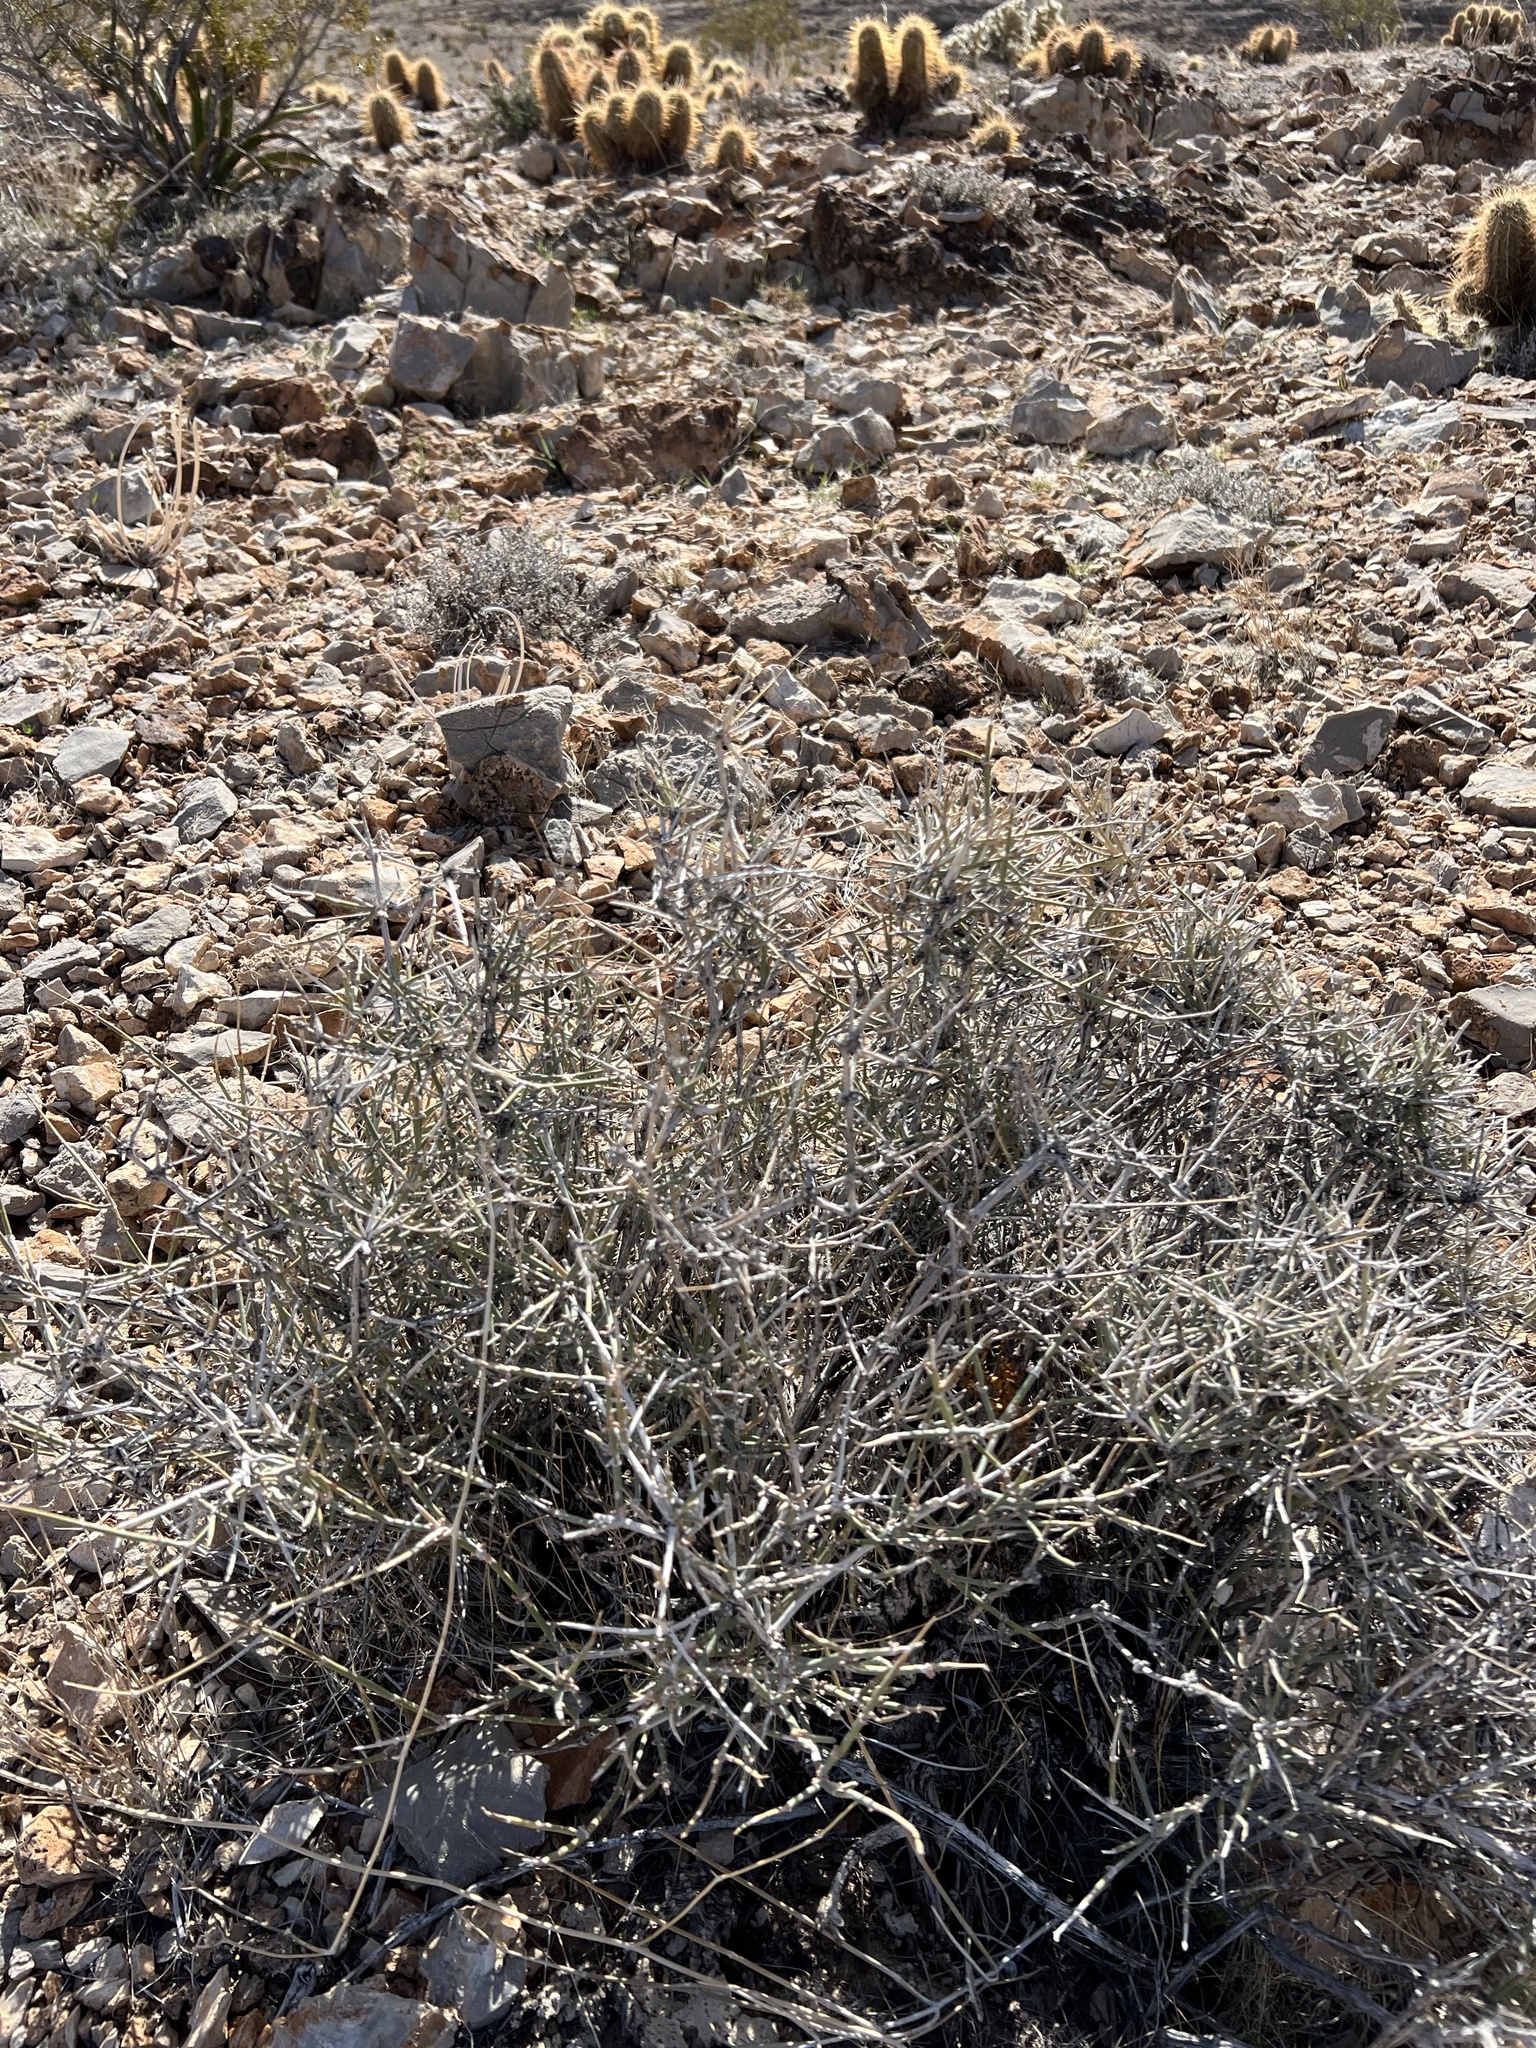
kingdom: Plantae
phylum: Tracheophyta
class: Gnetopsida
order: Ephedrales
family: Ephedraceae
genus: Ephedra
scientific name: Ephedra nevadensis
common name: Gray ephedra
